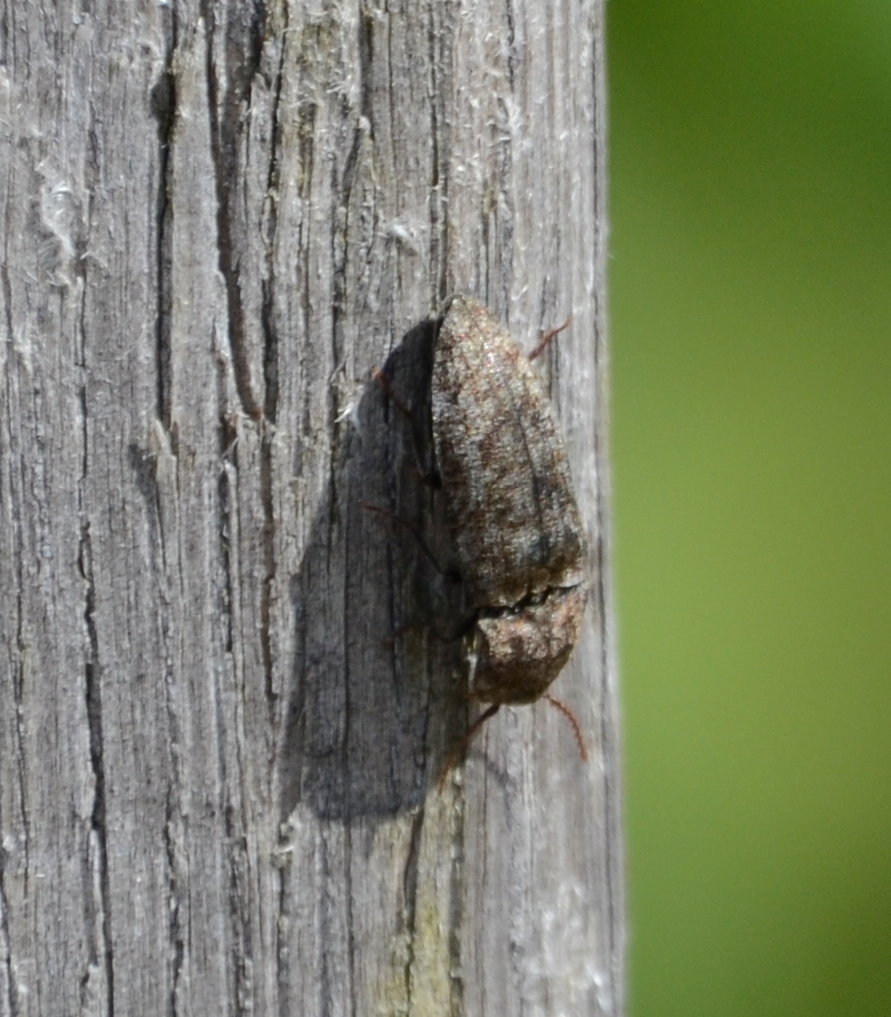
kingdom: Animalia
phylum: Arthropoda
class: Insecta
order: Coleoptera
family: Elateridae
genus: Agrypnus
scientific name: Agrypnus murinus
